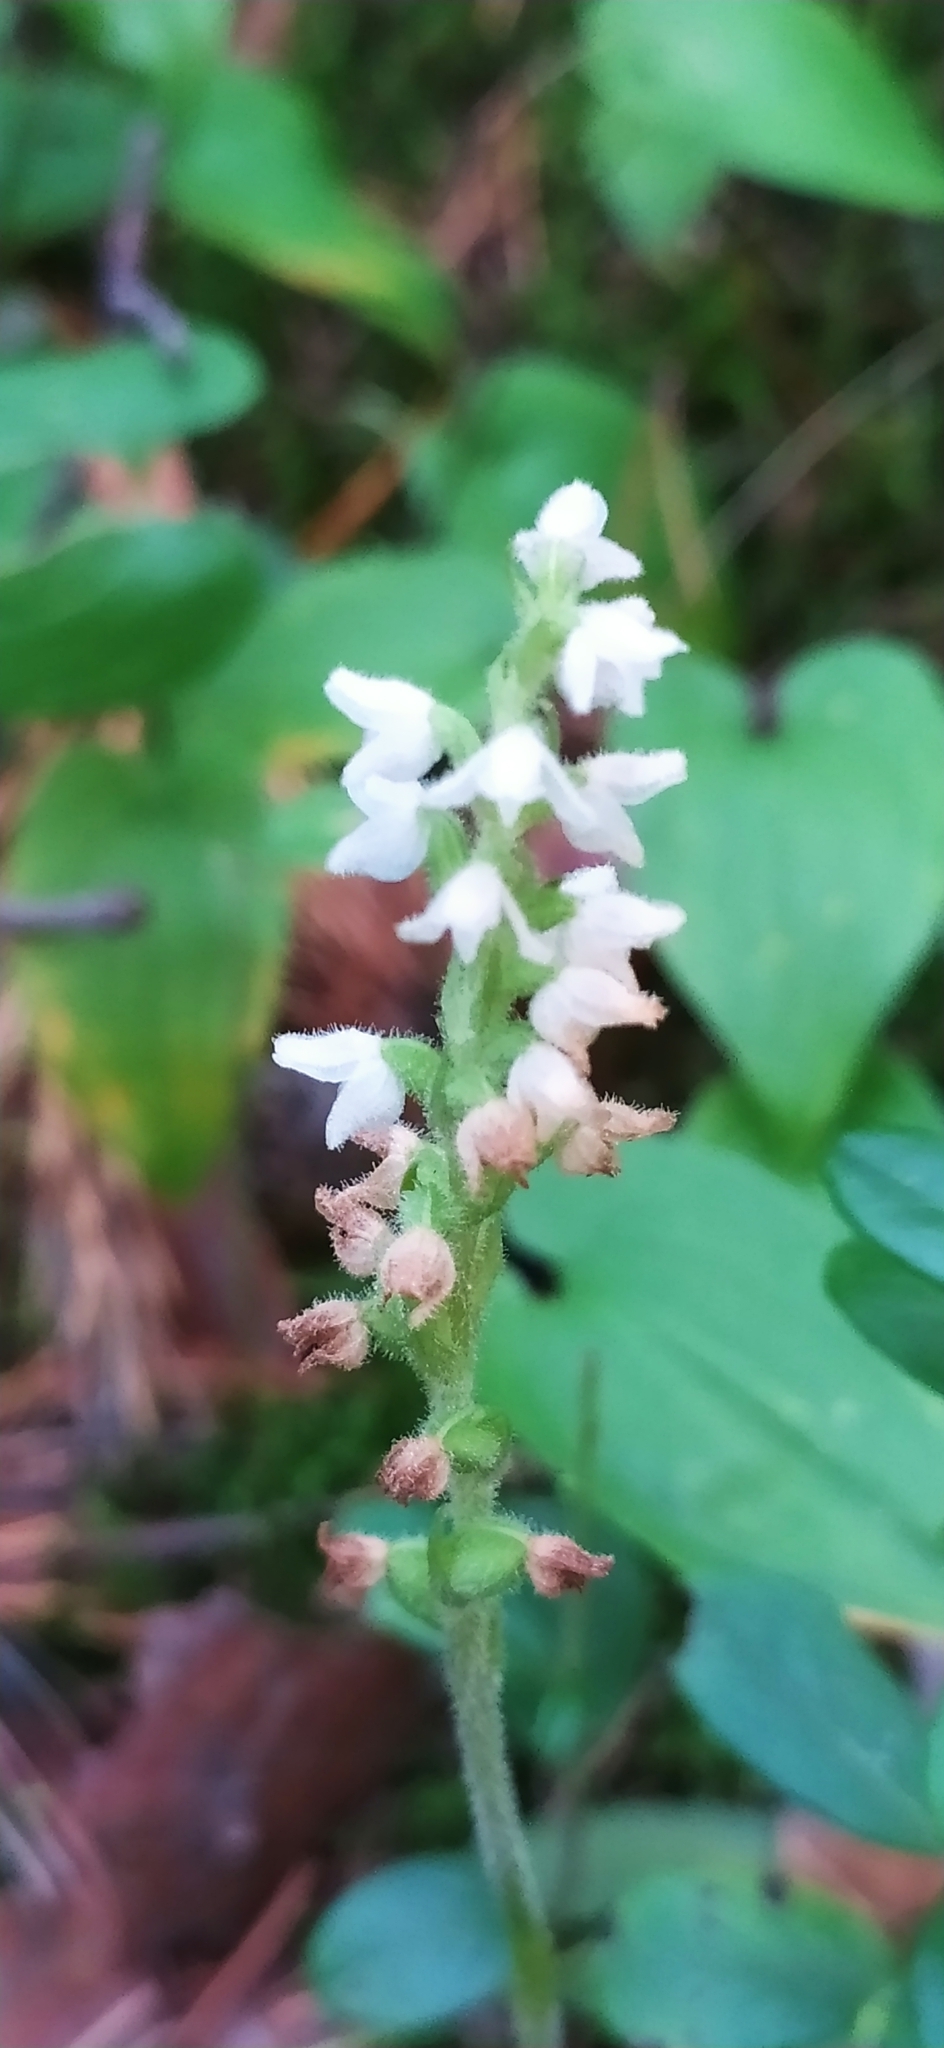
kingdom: Plantae
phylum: Tracheophyta
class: Liliopsida
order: Asparagales
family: Orchidaceae
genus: Goodyera
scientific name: Goodyera repens
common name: Creeping lady's-tresses
